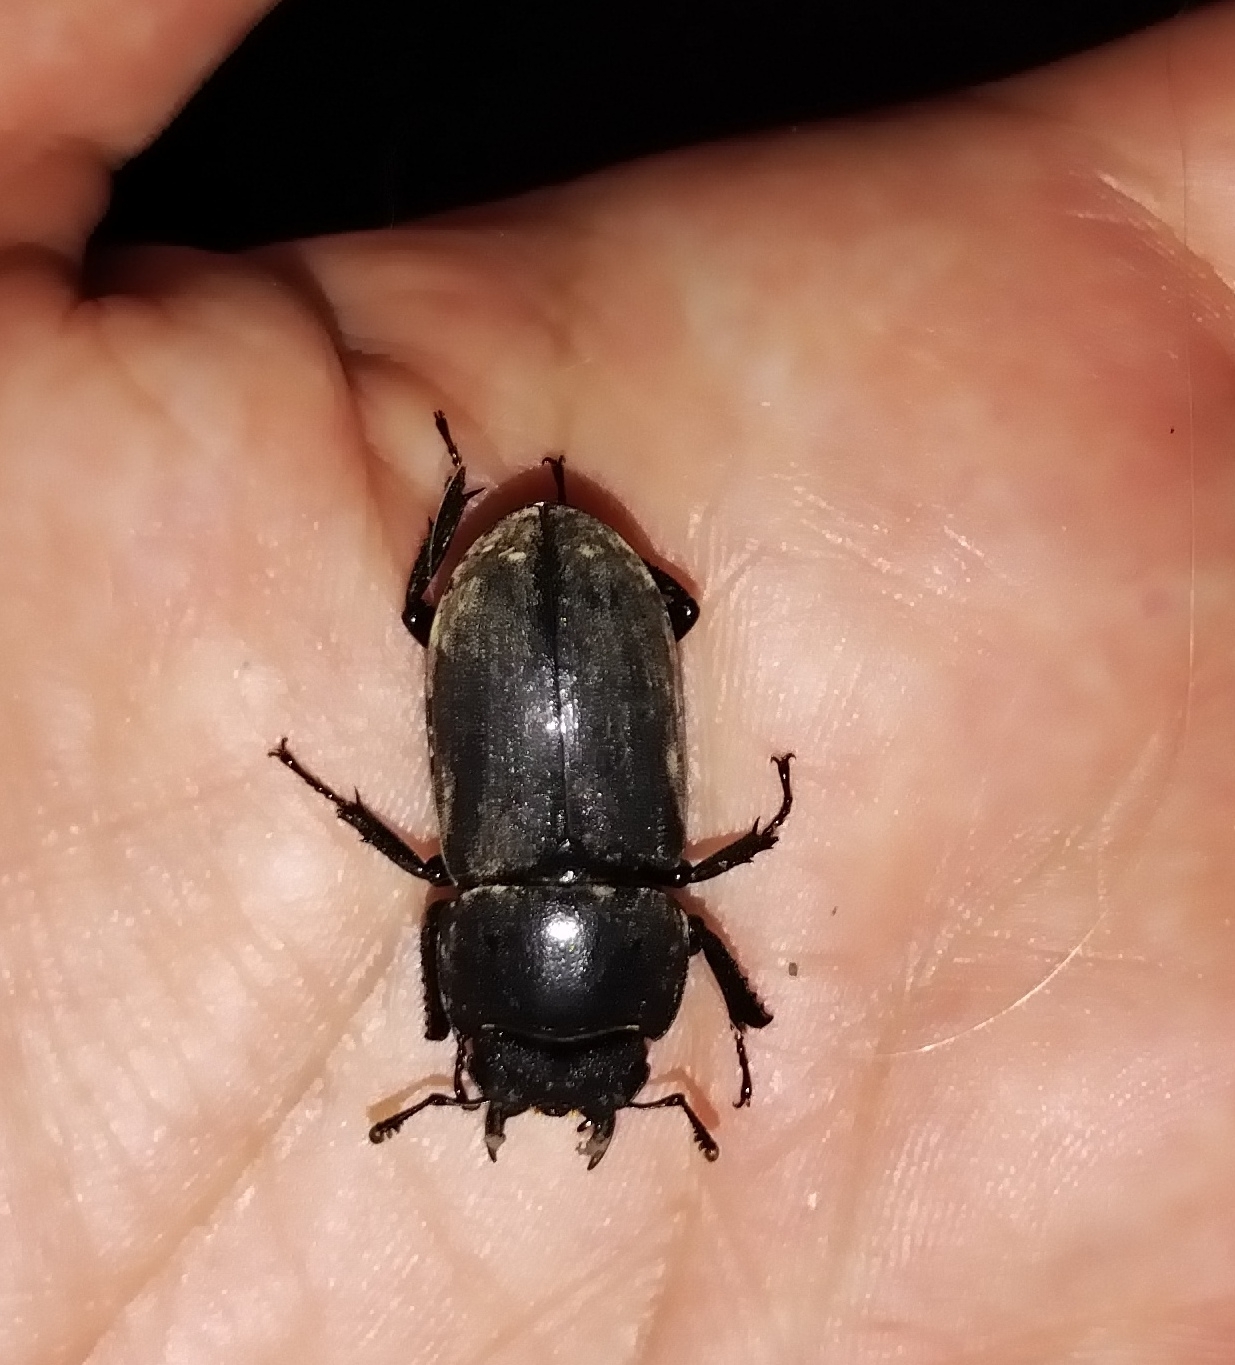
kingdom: Animalia
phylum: Arthropoda
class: Insecta
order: Coleoptera
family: Lucanidae
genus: Dorcus
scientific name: Dorcus parallelipipedus
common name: Lesser stag beetle
